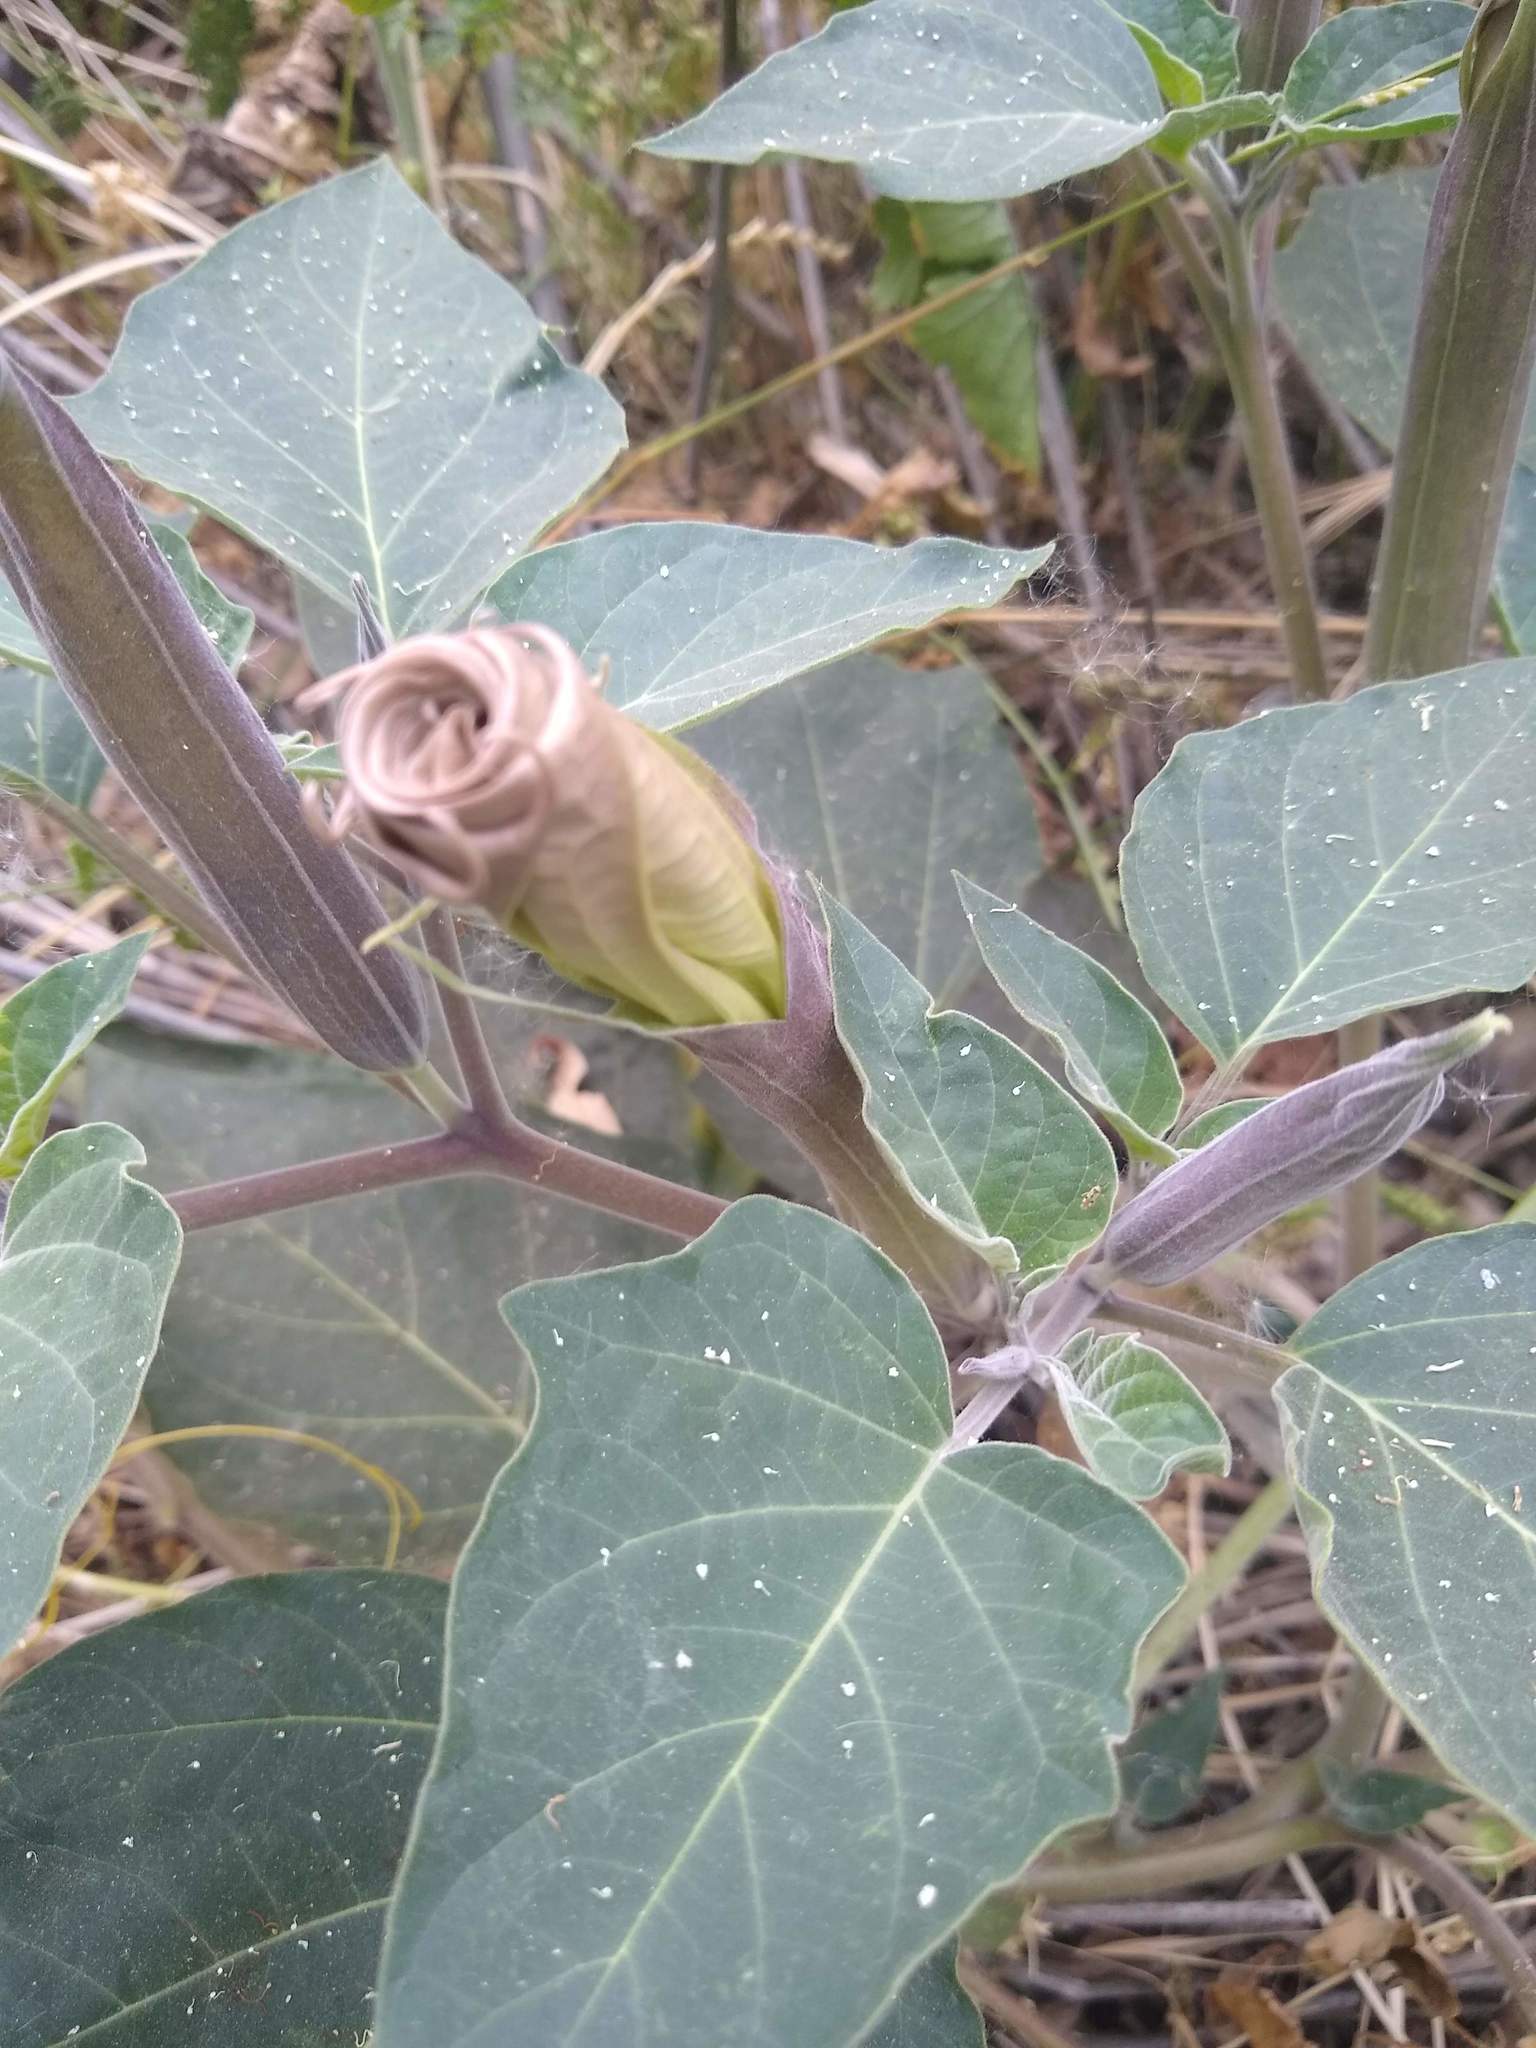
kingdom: Plantae
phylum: Tracheophyta
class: Magnoliopsida
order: Solanales
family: Solanaceae
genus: Datura
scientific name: Datura wrightii
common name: Sacred thorn-apple
